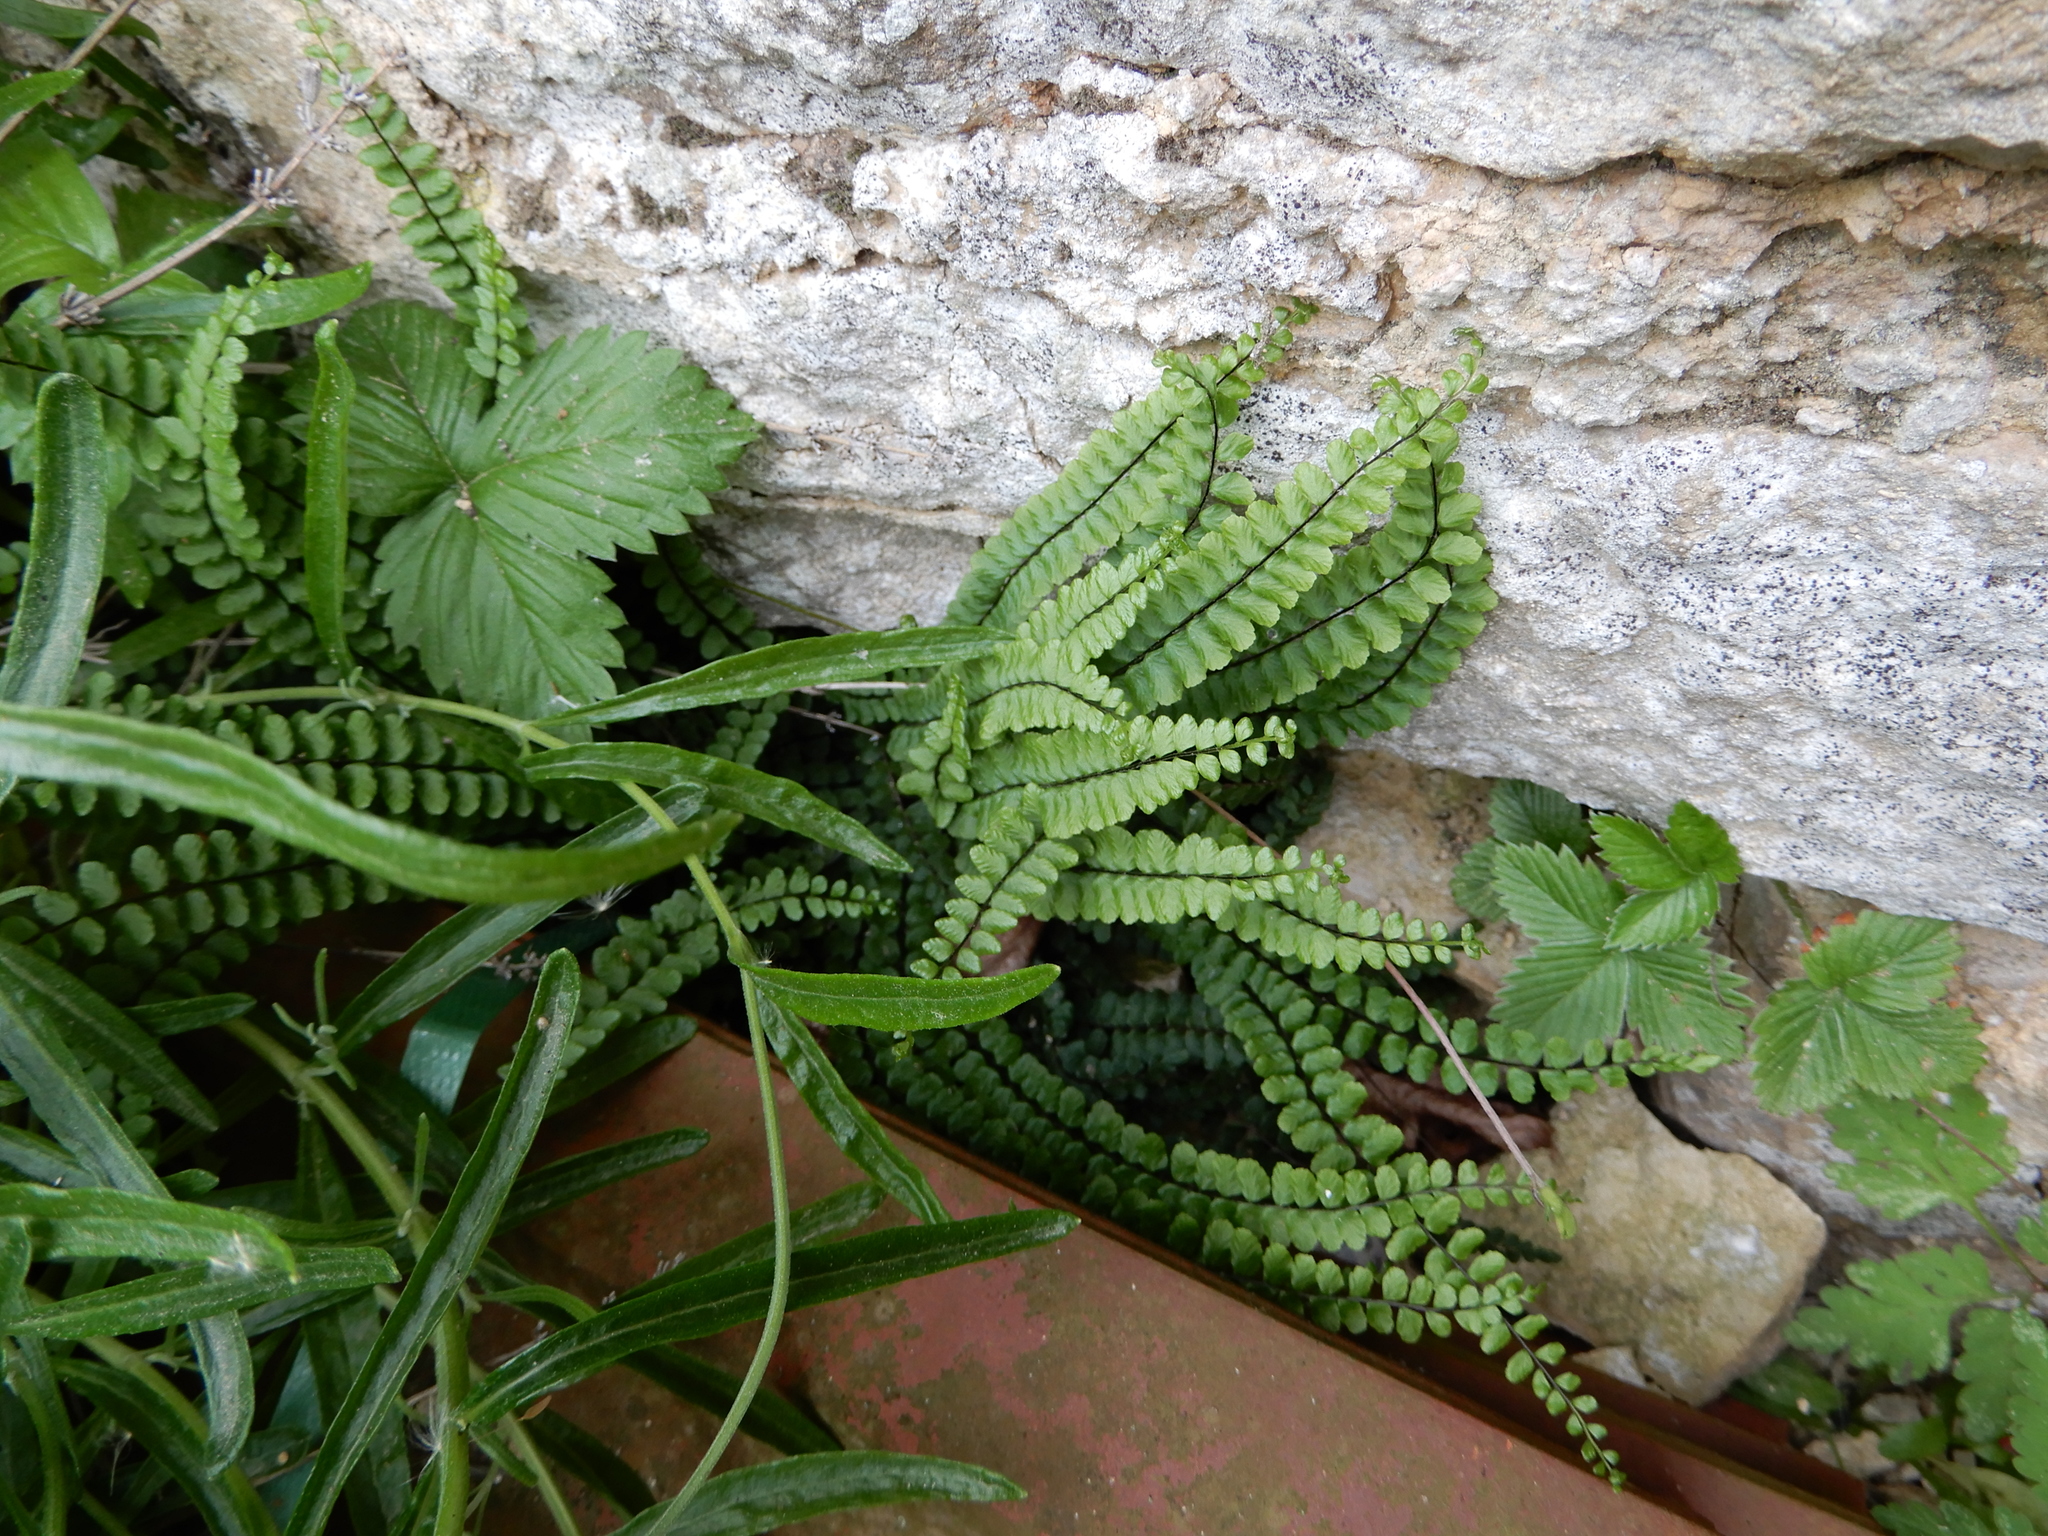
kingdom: Plantae
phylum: Tracheophyta
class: Polypodiopsida
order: Polypodiales
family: Aspleniaceae
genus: Asplenium
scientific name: Asplenium trichomanes
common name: Maidenhair spleenwort
